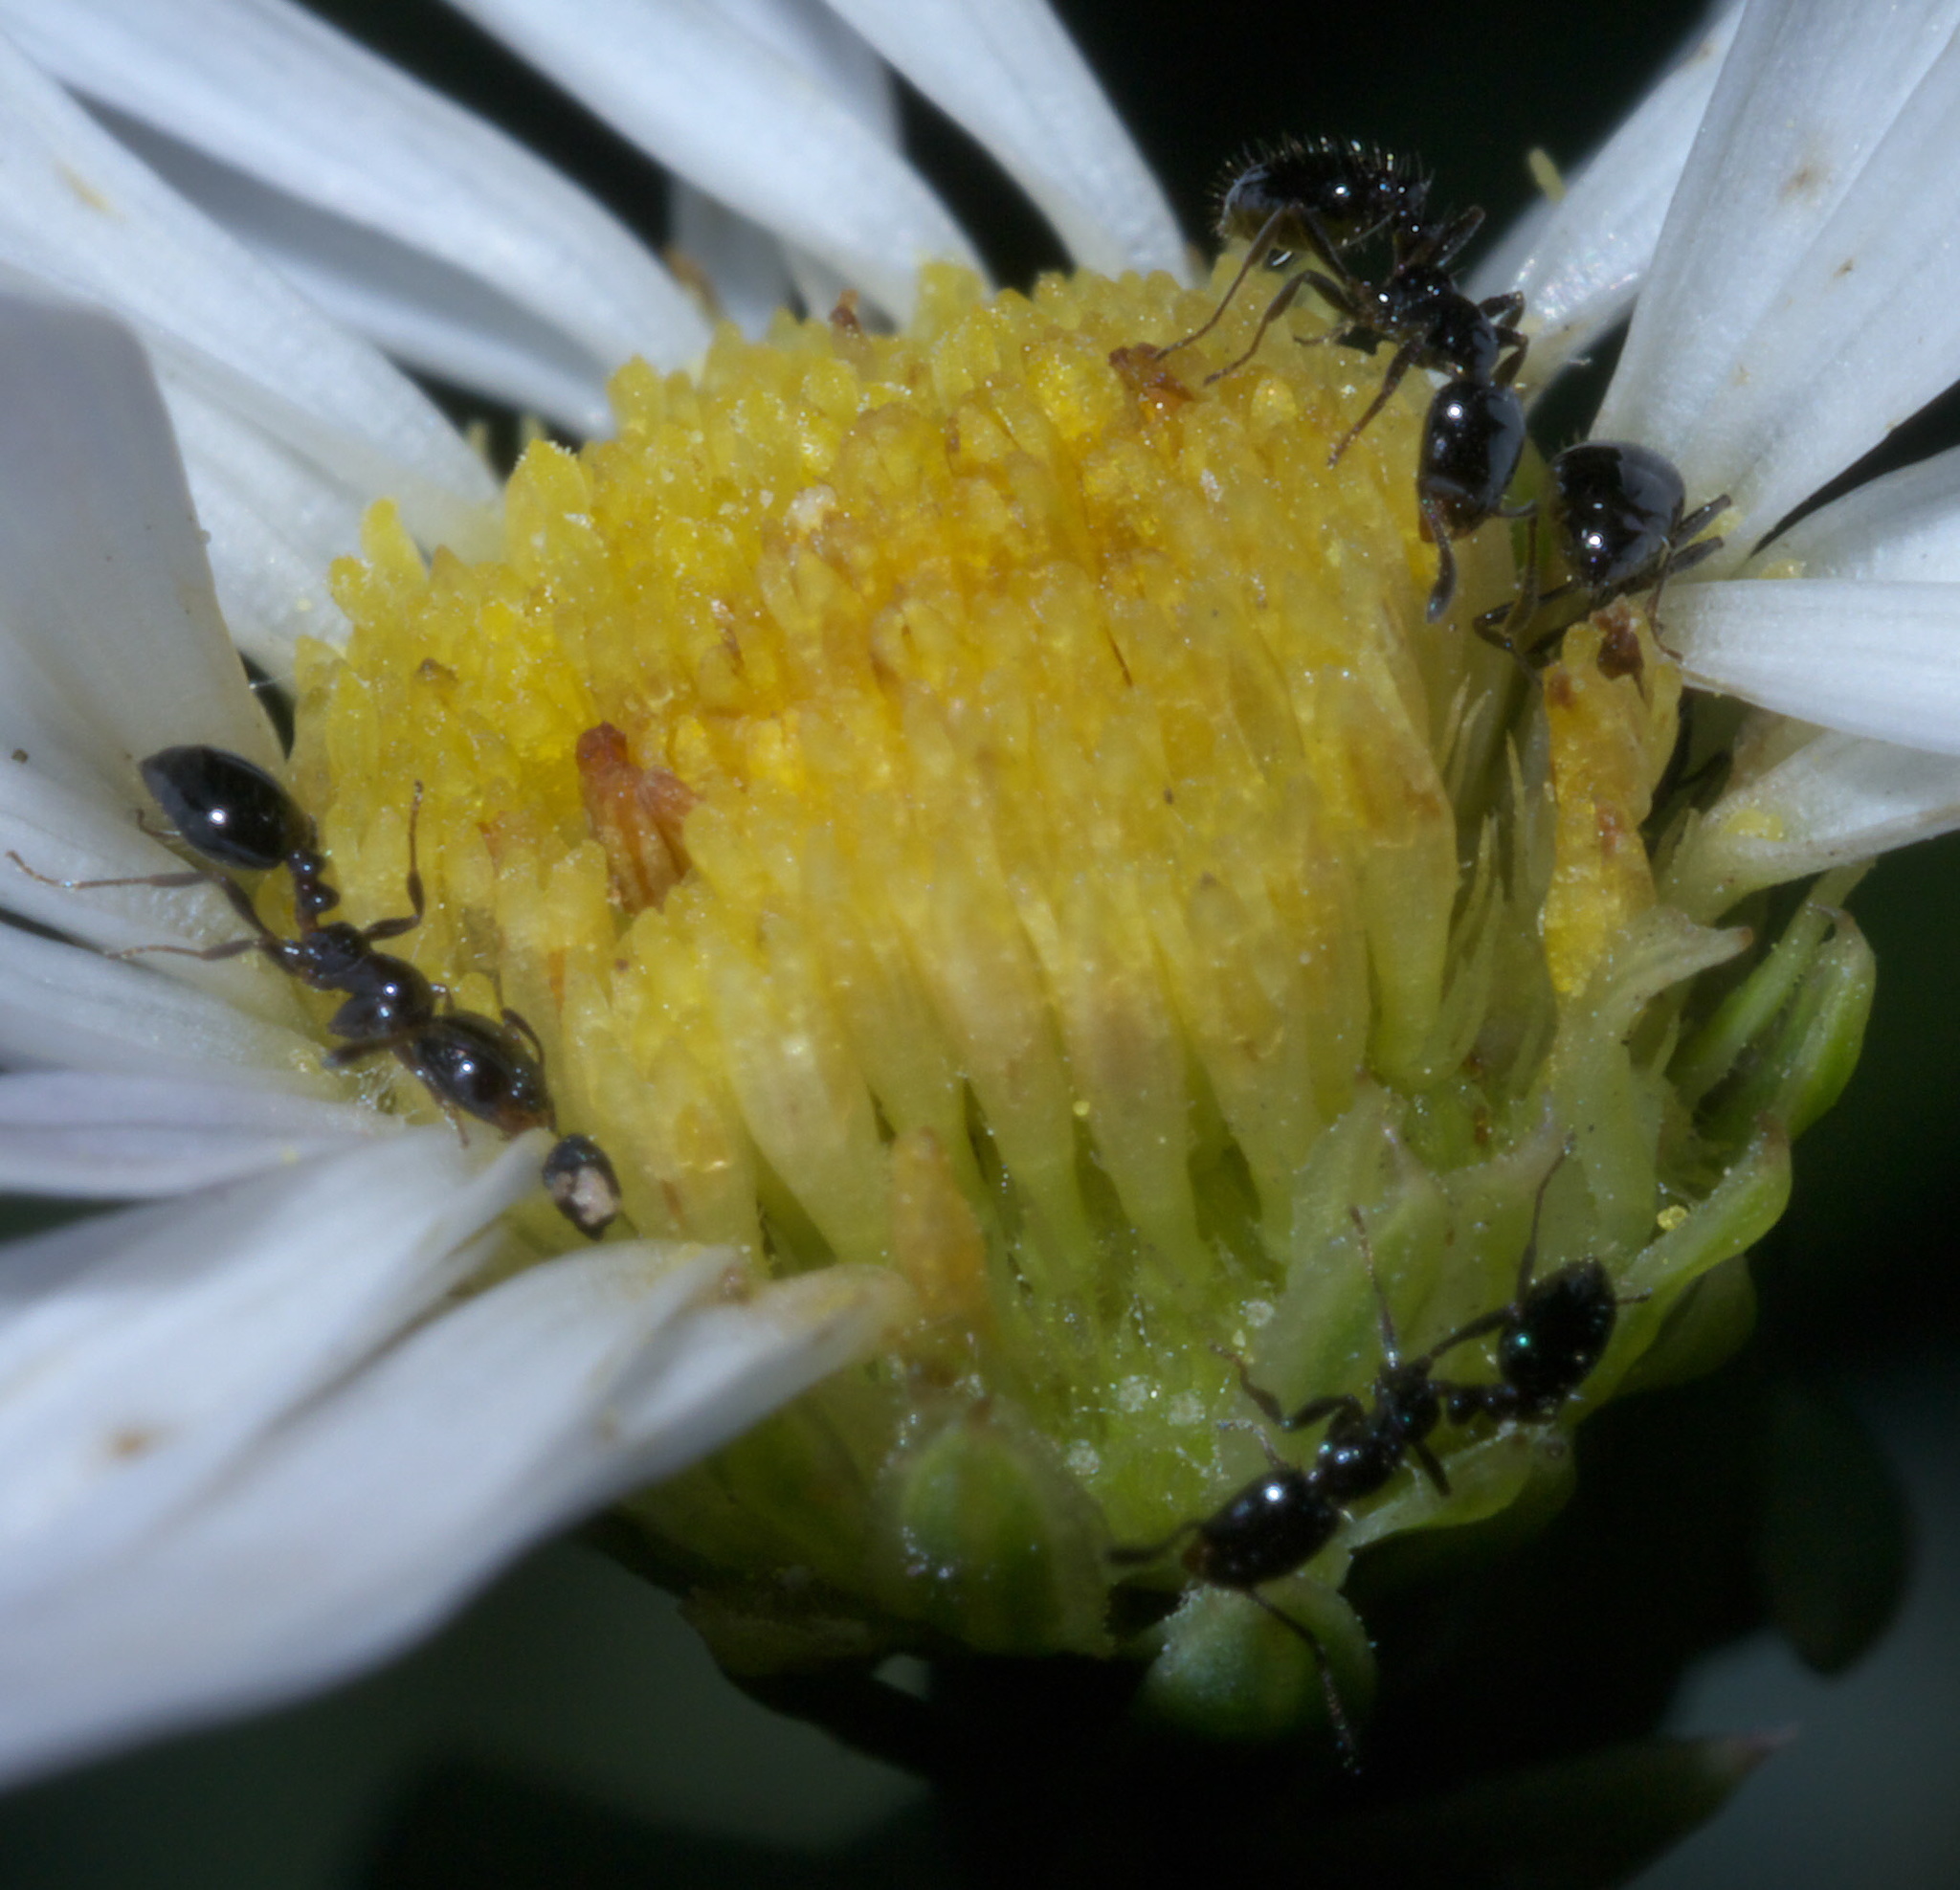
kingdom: Animalia
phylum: Arthropoda
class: Insecta
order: Hymenoptera
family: Formicidae
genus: Monomorium
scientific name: Monomorium minimum
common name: Little black ant
